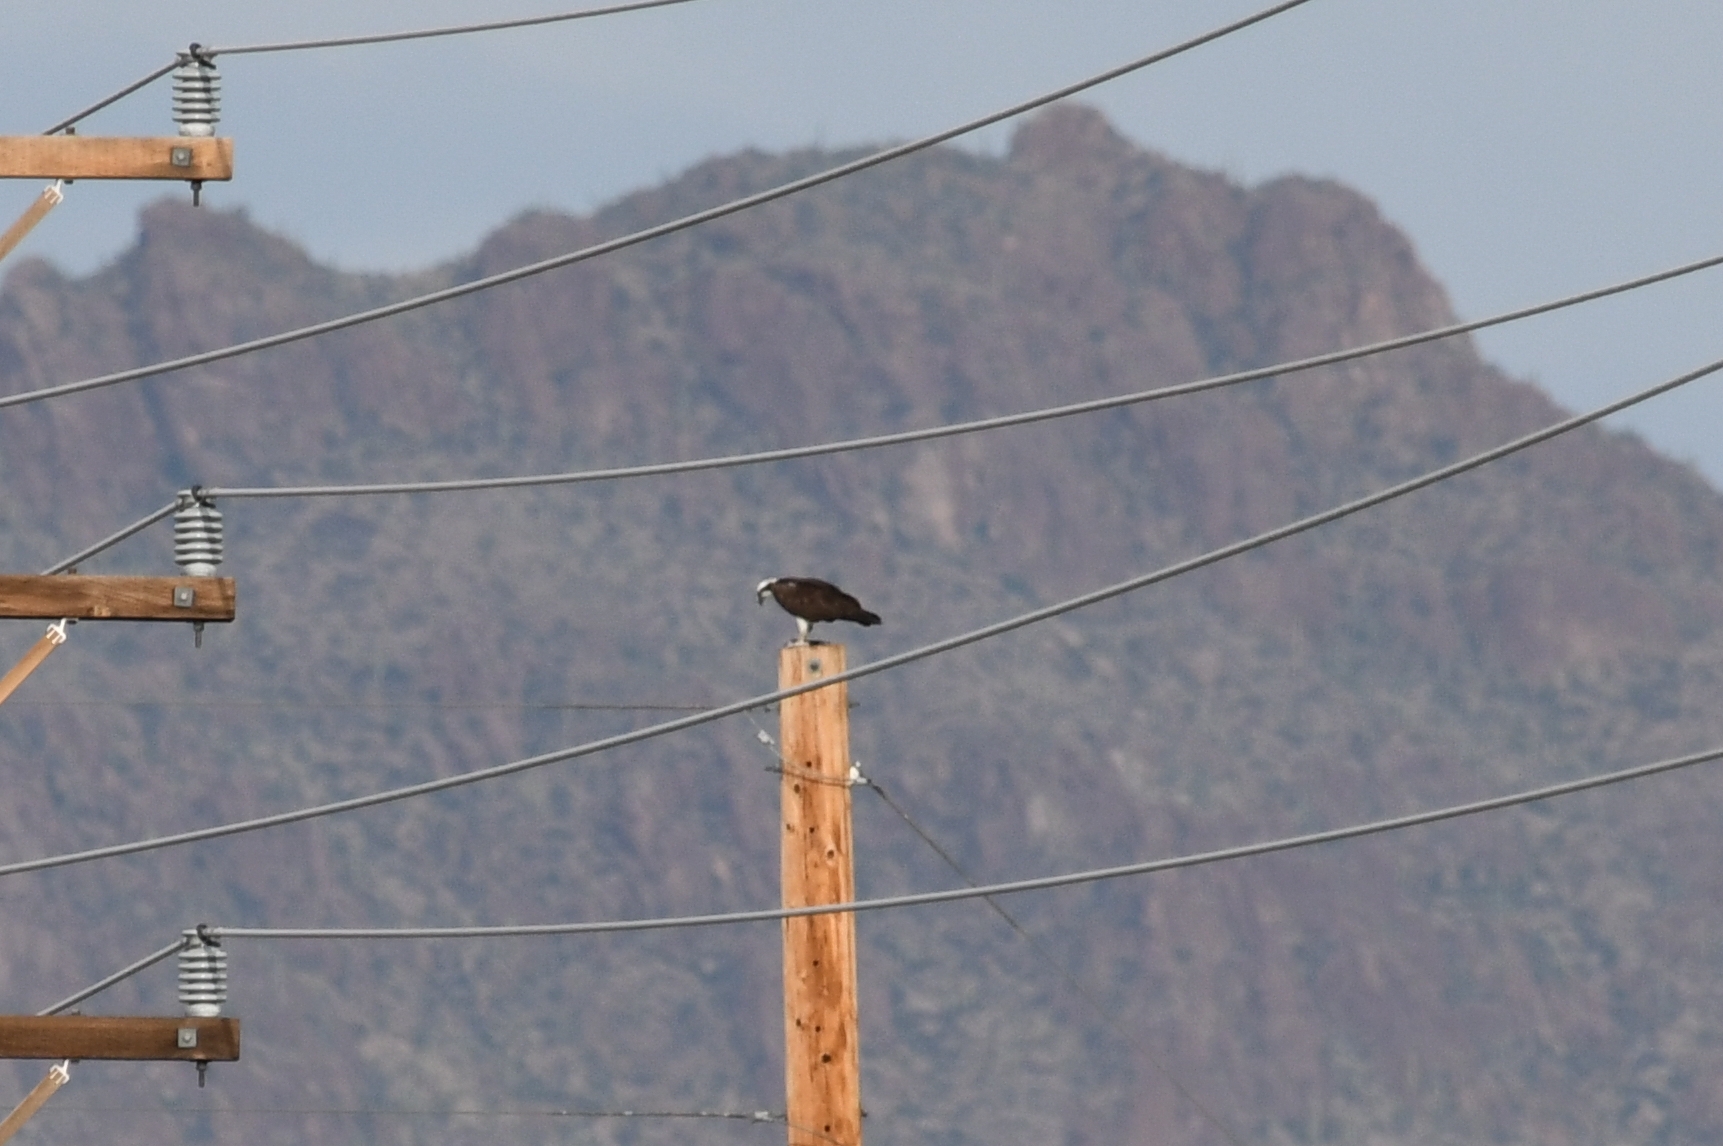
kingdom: Animalia
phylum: Chordata
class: Aves
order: Accipitriformes
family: Pandionidae
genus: Pandion
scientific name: Pandion haliaetus
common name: Osprey
